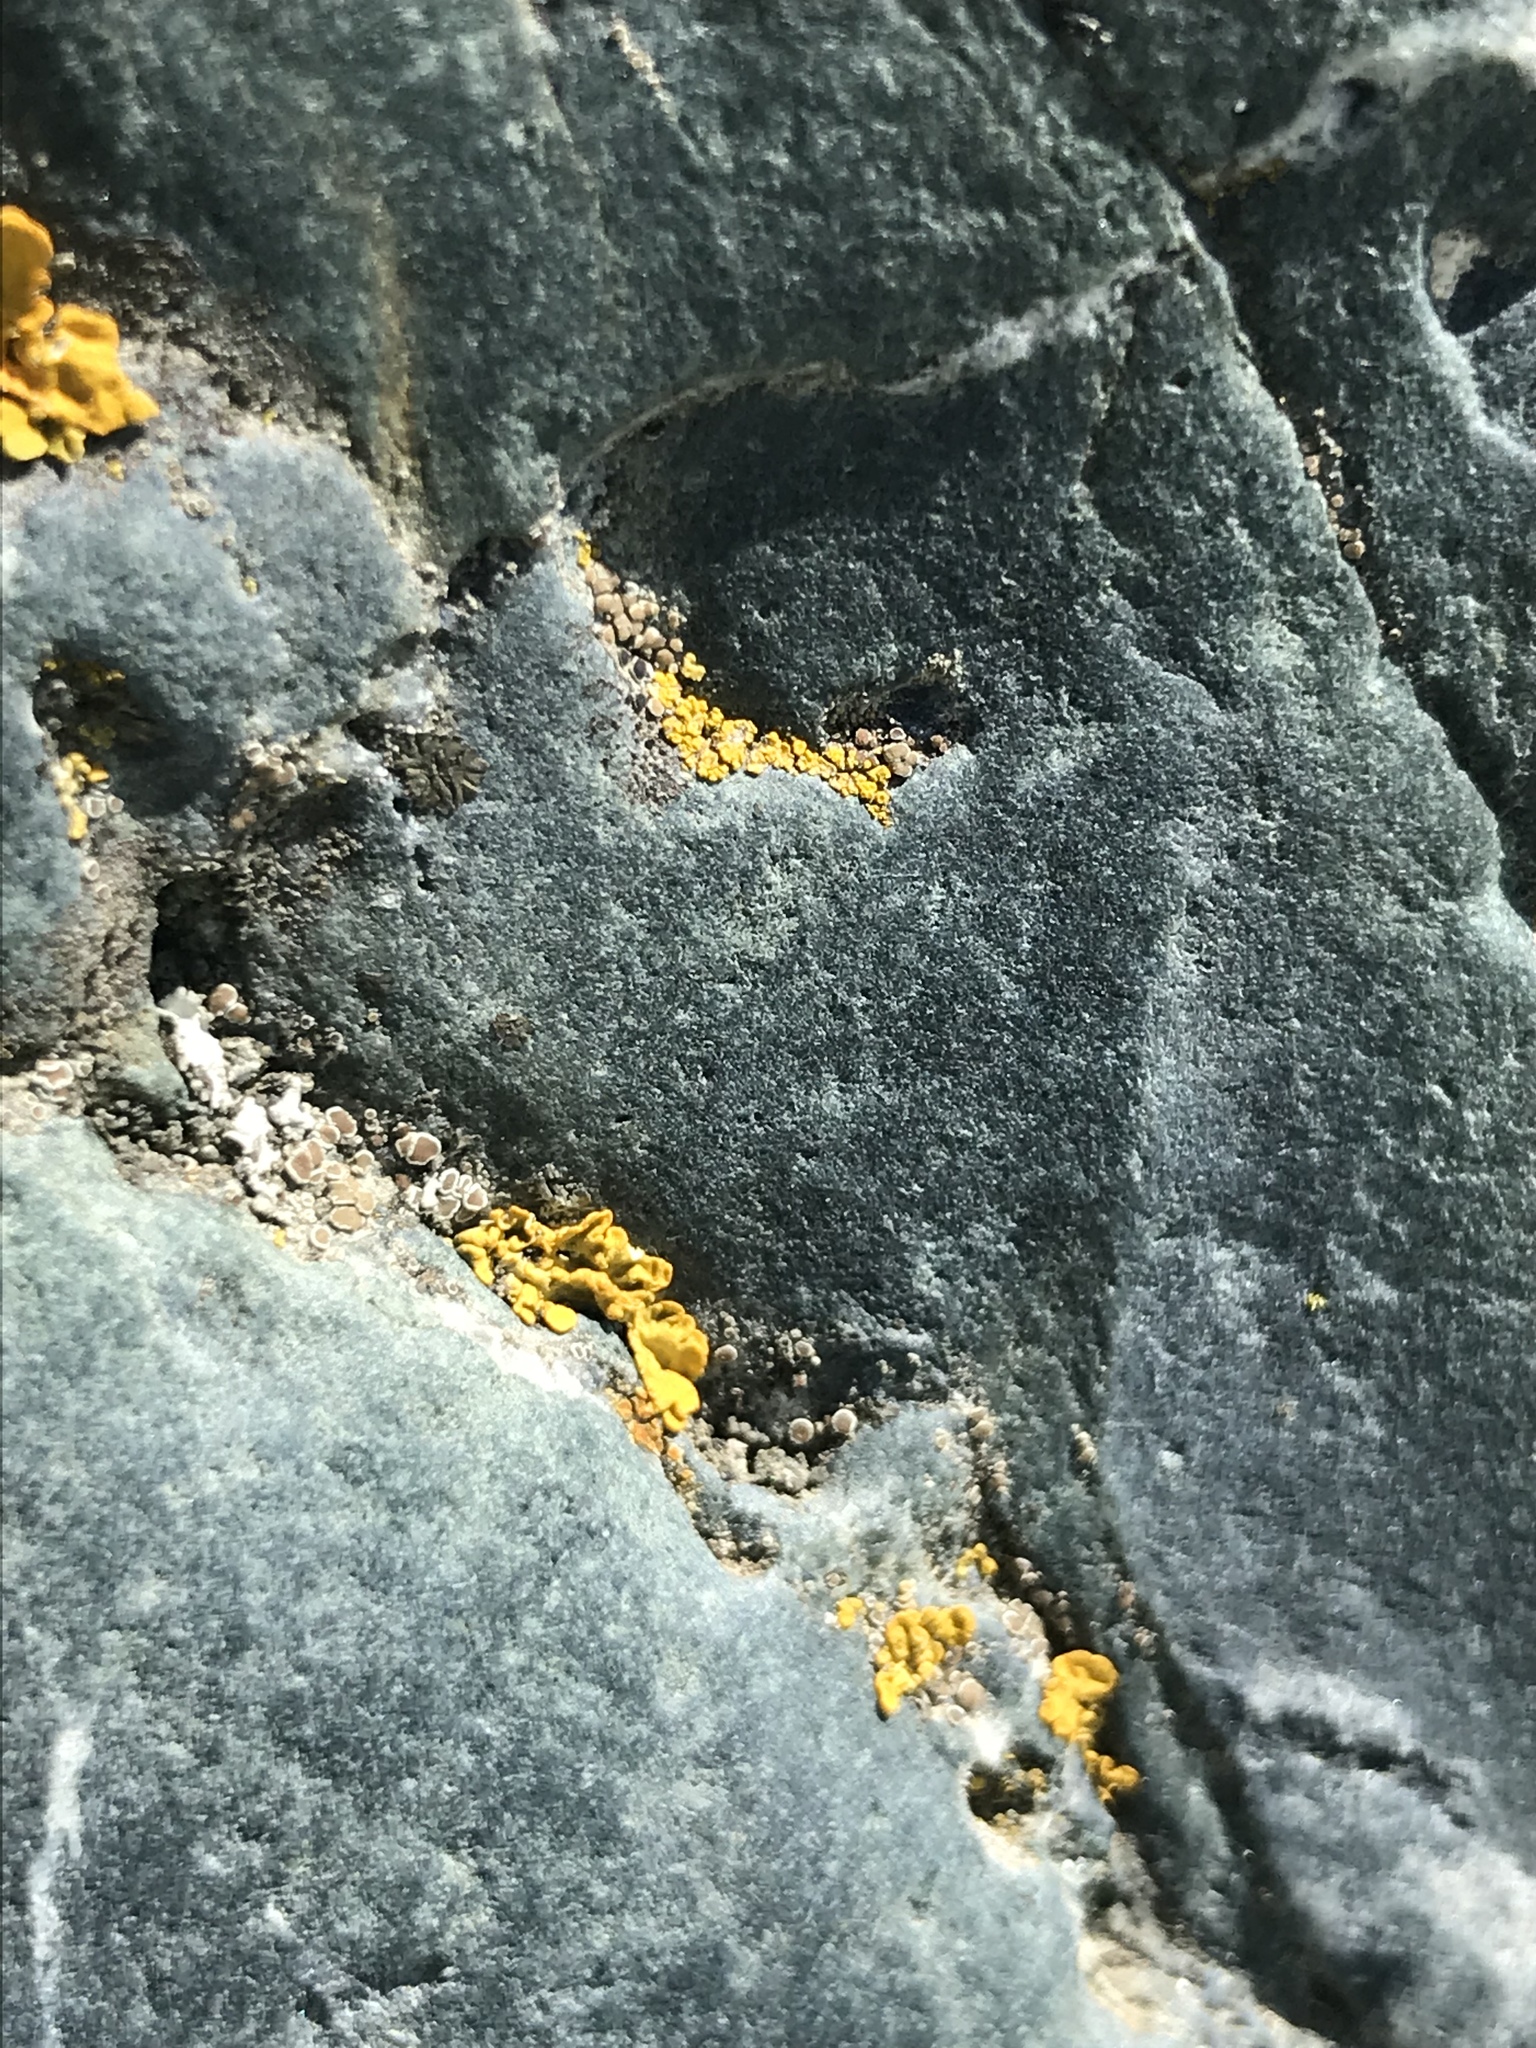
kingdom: Fungi
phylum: Ascomycota
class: Lecanoromycetes
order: Teloschistales
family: Teloschistaceae
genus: Xanthoria
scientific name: Xanthoria parietina
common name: Common orange lichen
